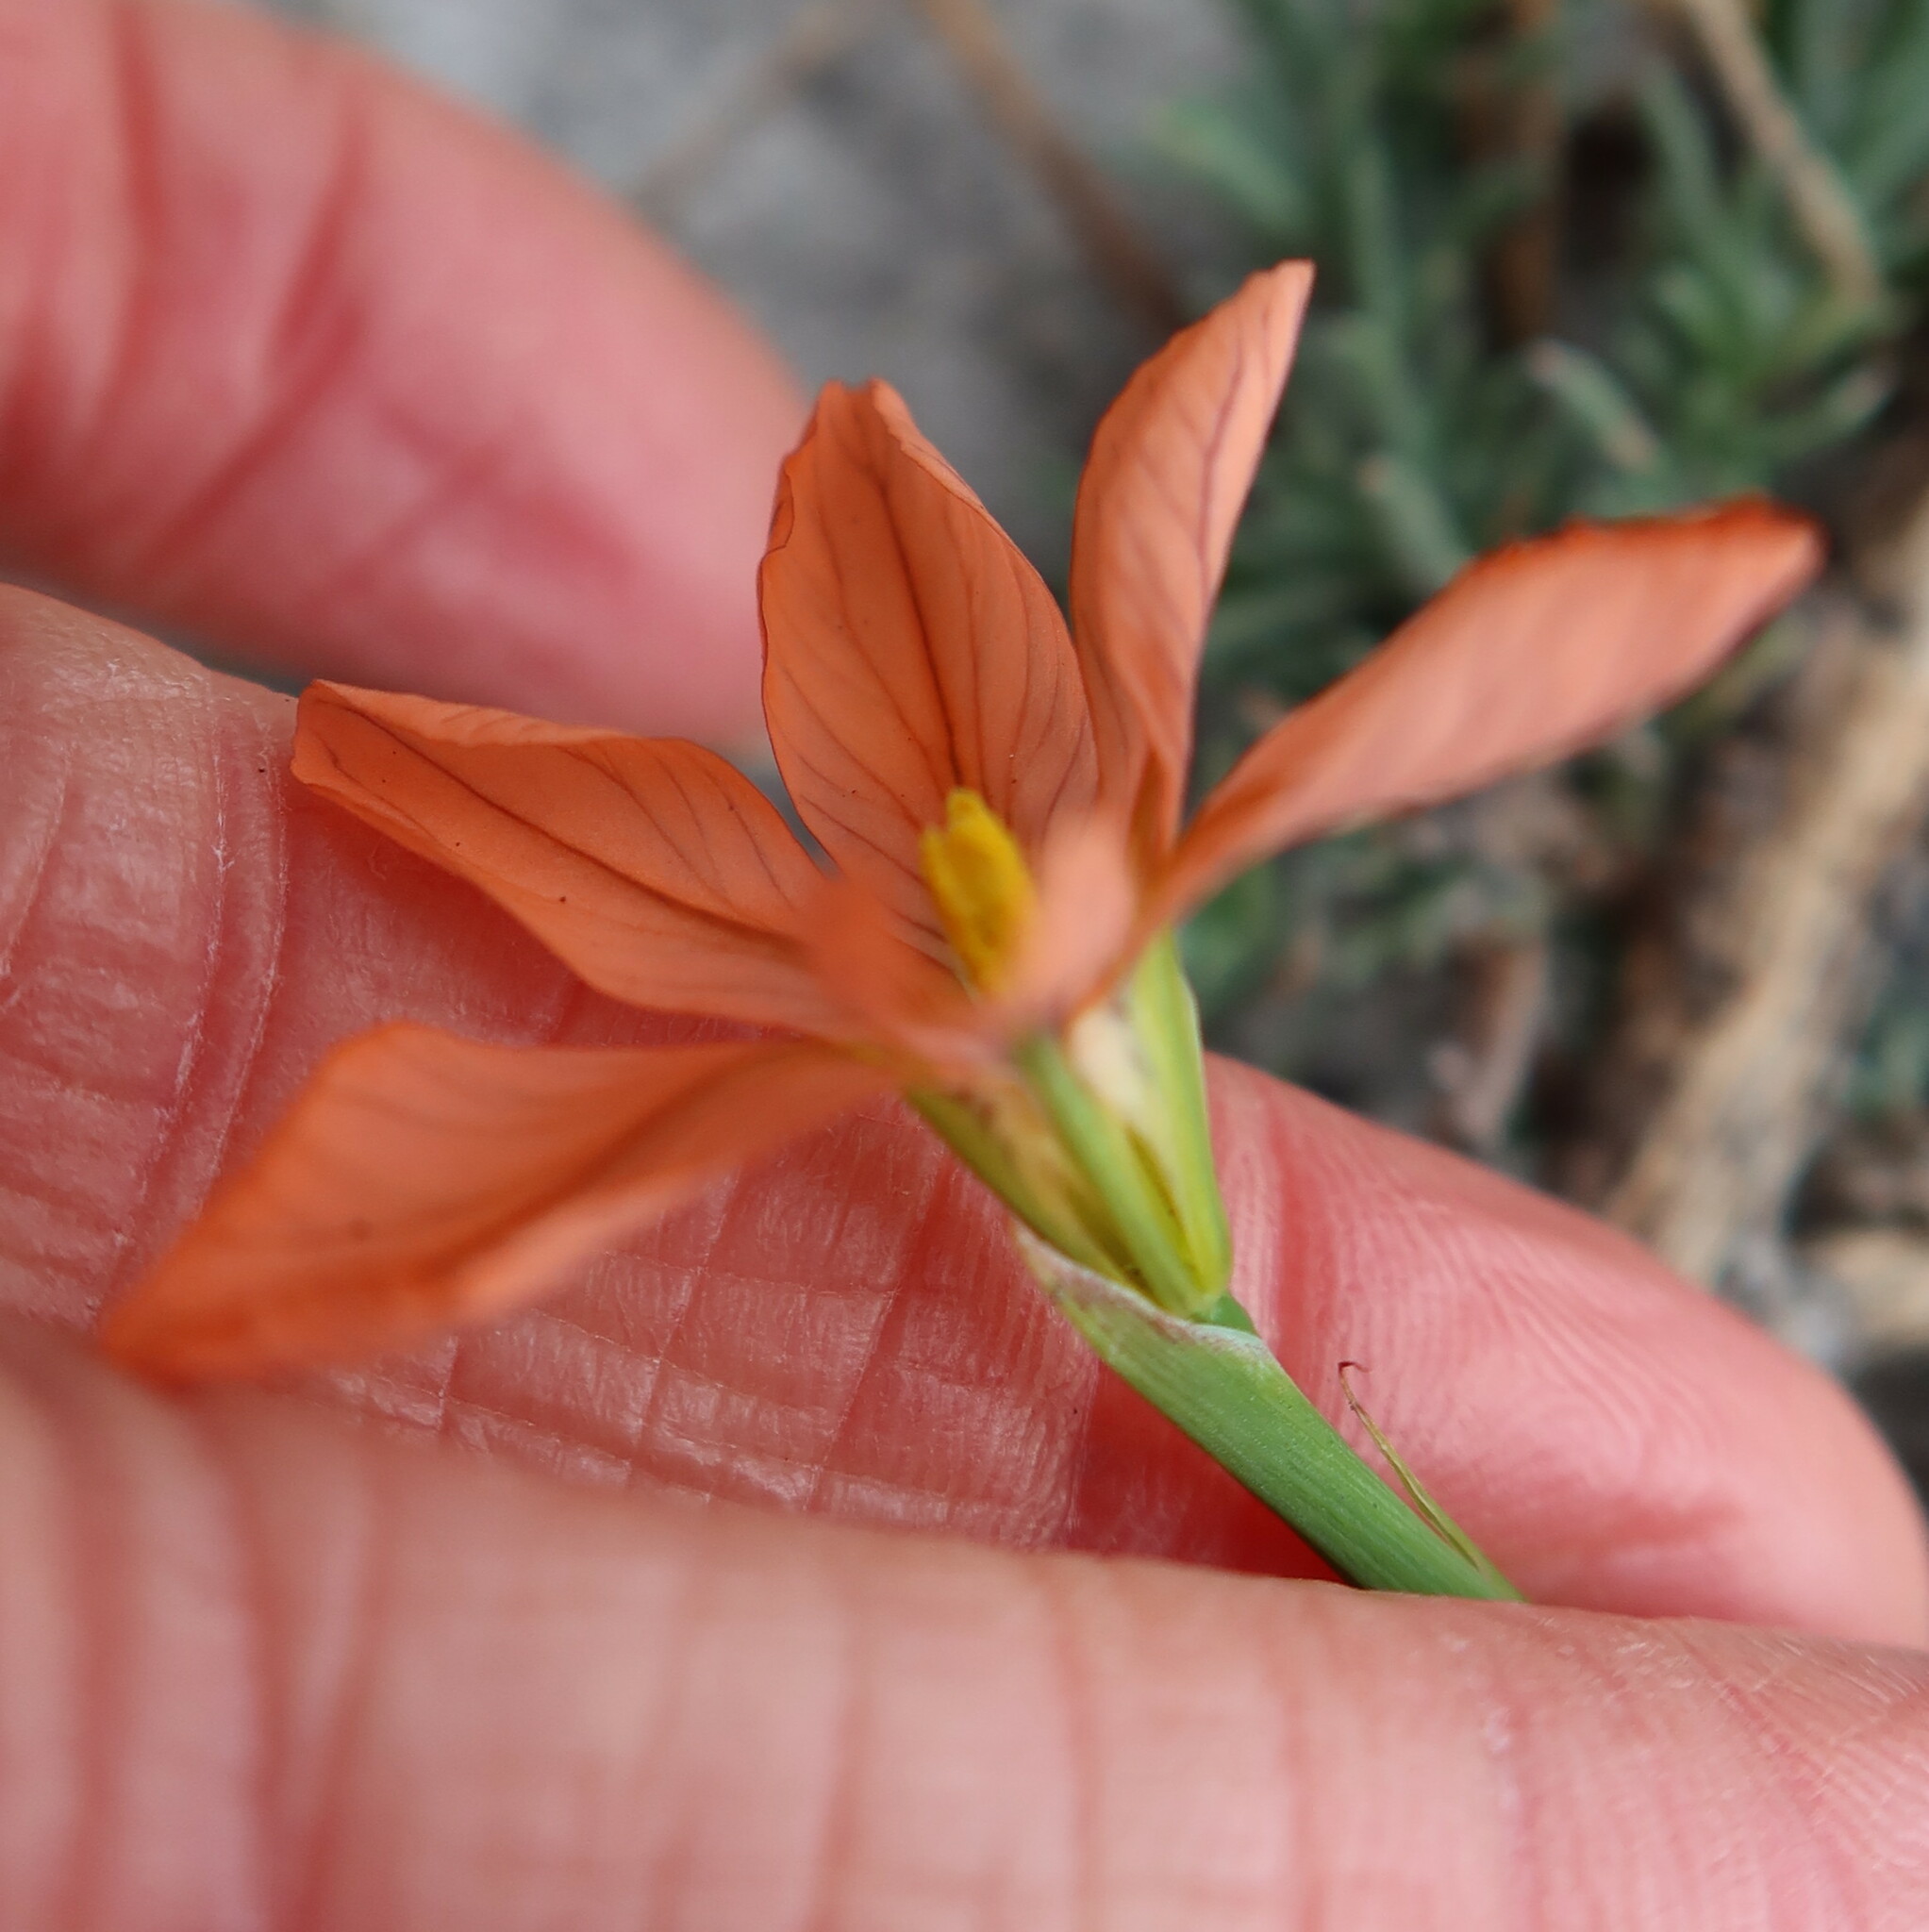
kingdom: Plantae
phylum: Tracheophyta
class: Liliopsida
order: Asparagales
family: Iridaceae
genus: Moraea
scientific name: Moraea minor
